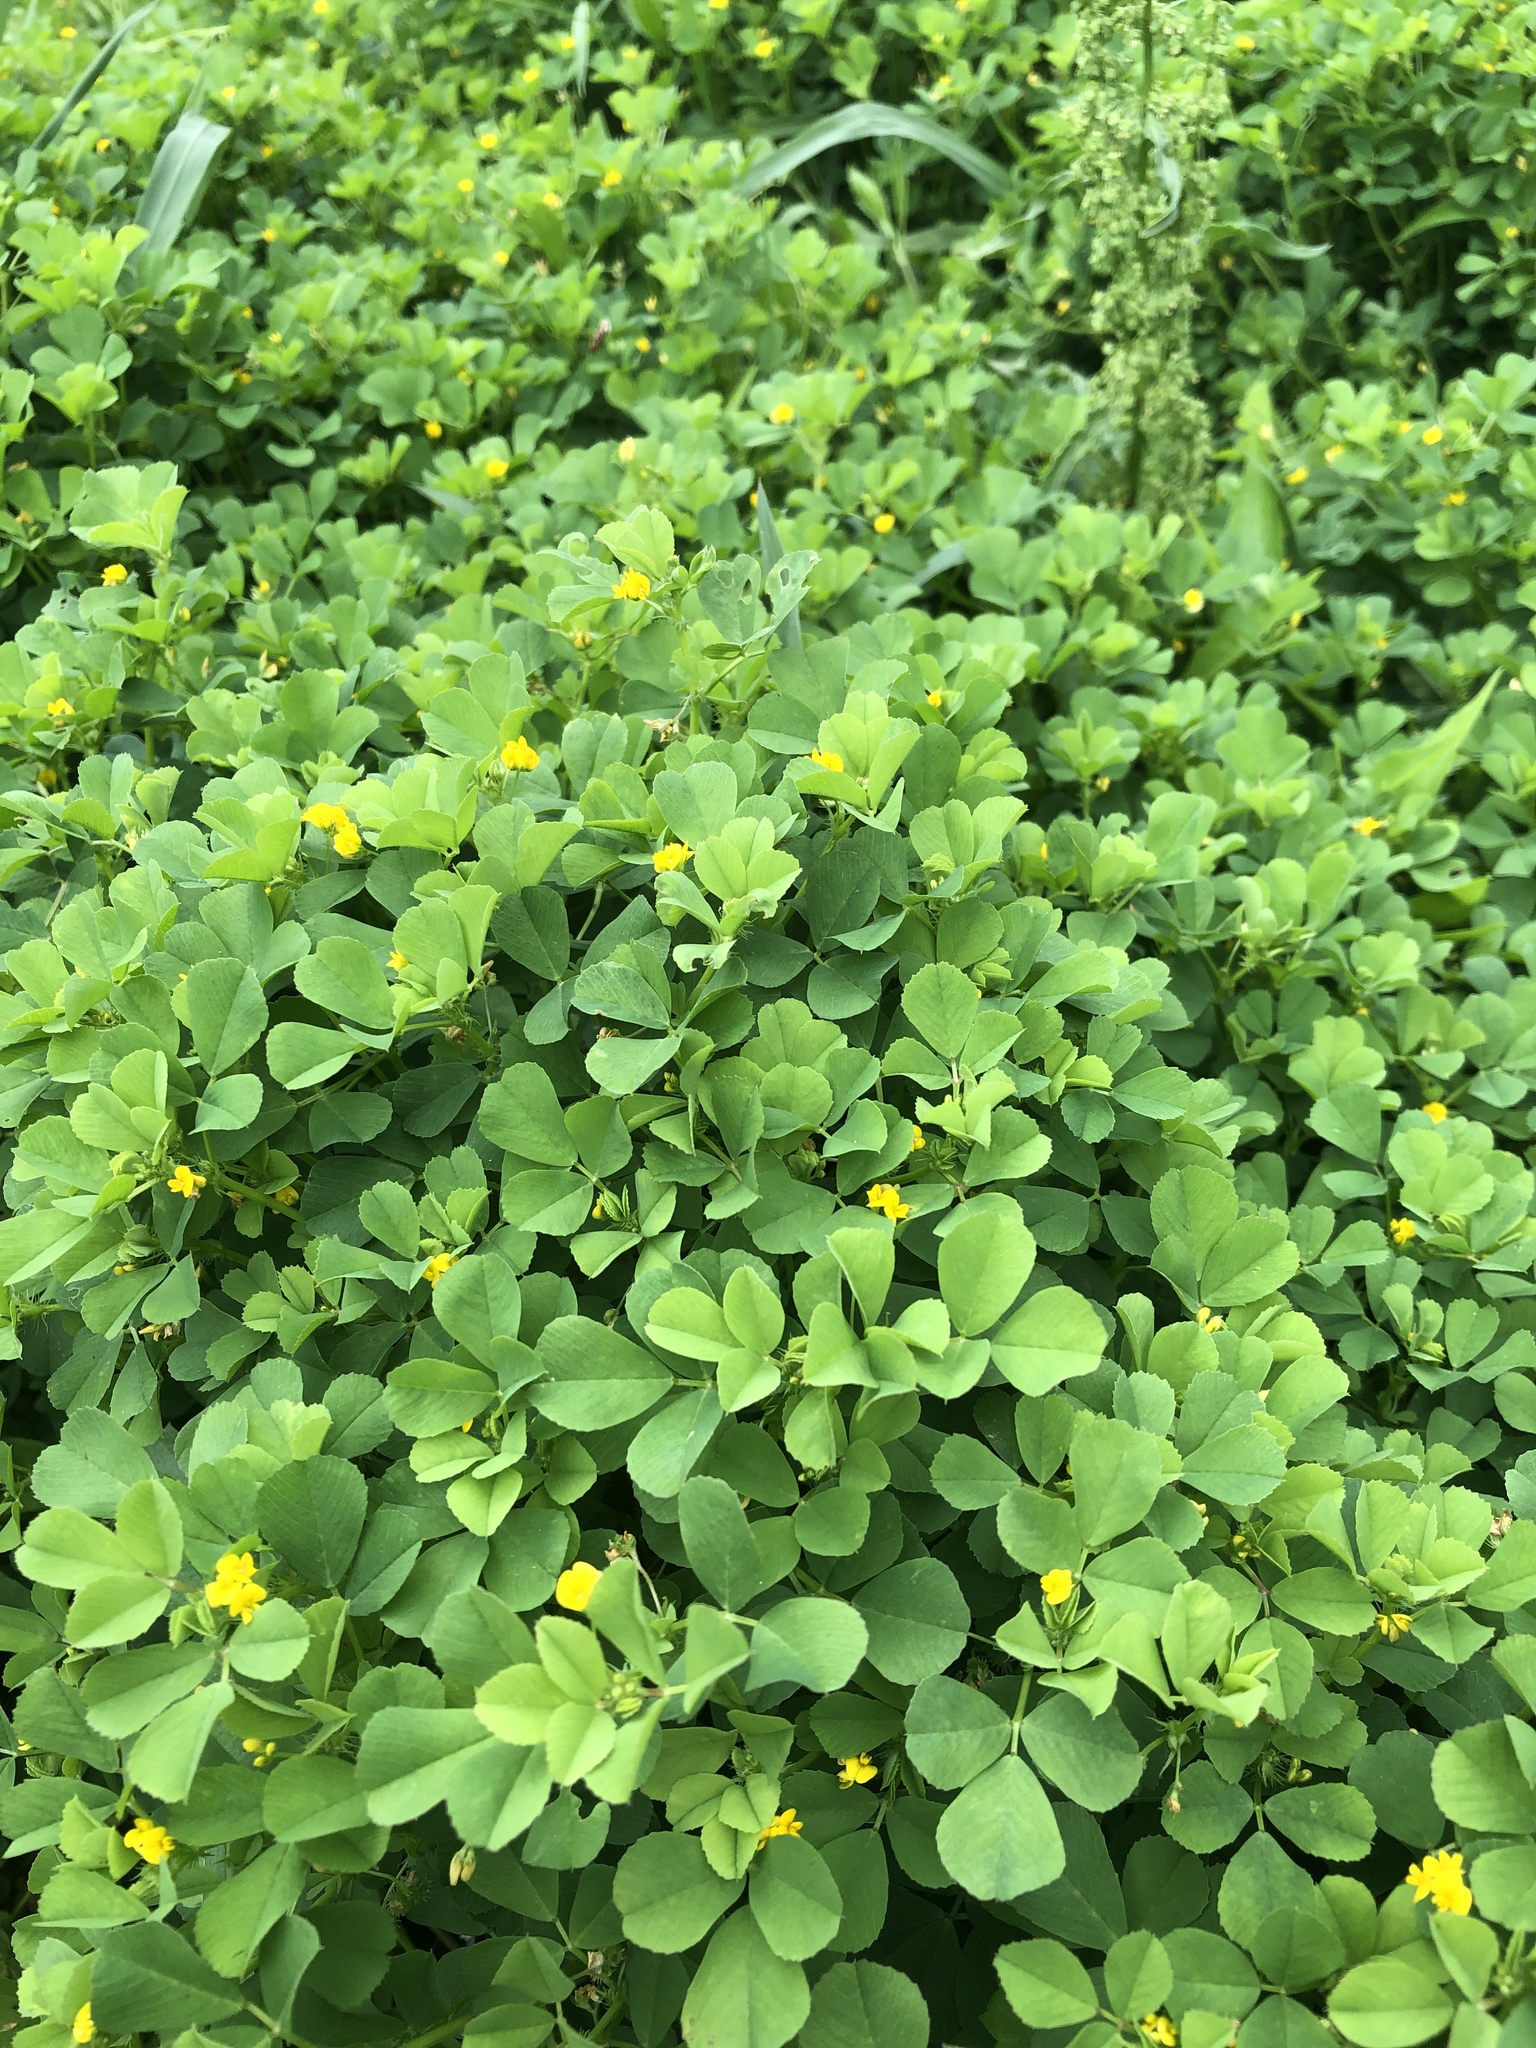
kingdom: Plantae
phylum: Tracheophyta
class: Magnoliopsida
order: Fabales
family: Fabaceae
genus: Medicago
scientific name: Medicago polymorpha
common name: Burclover
